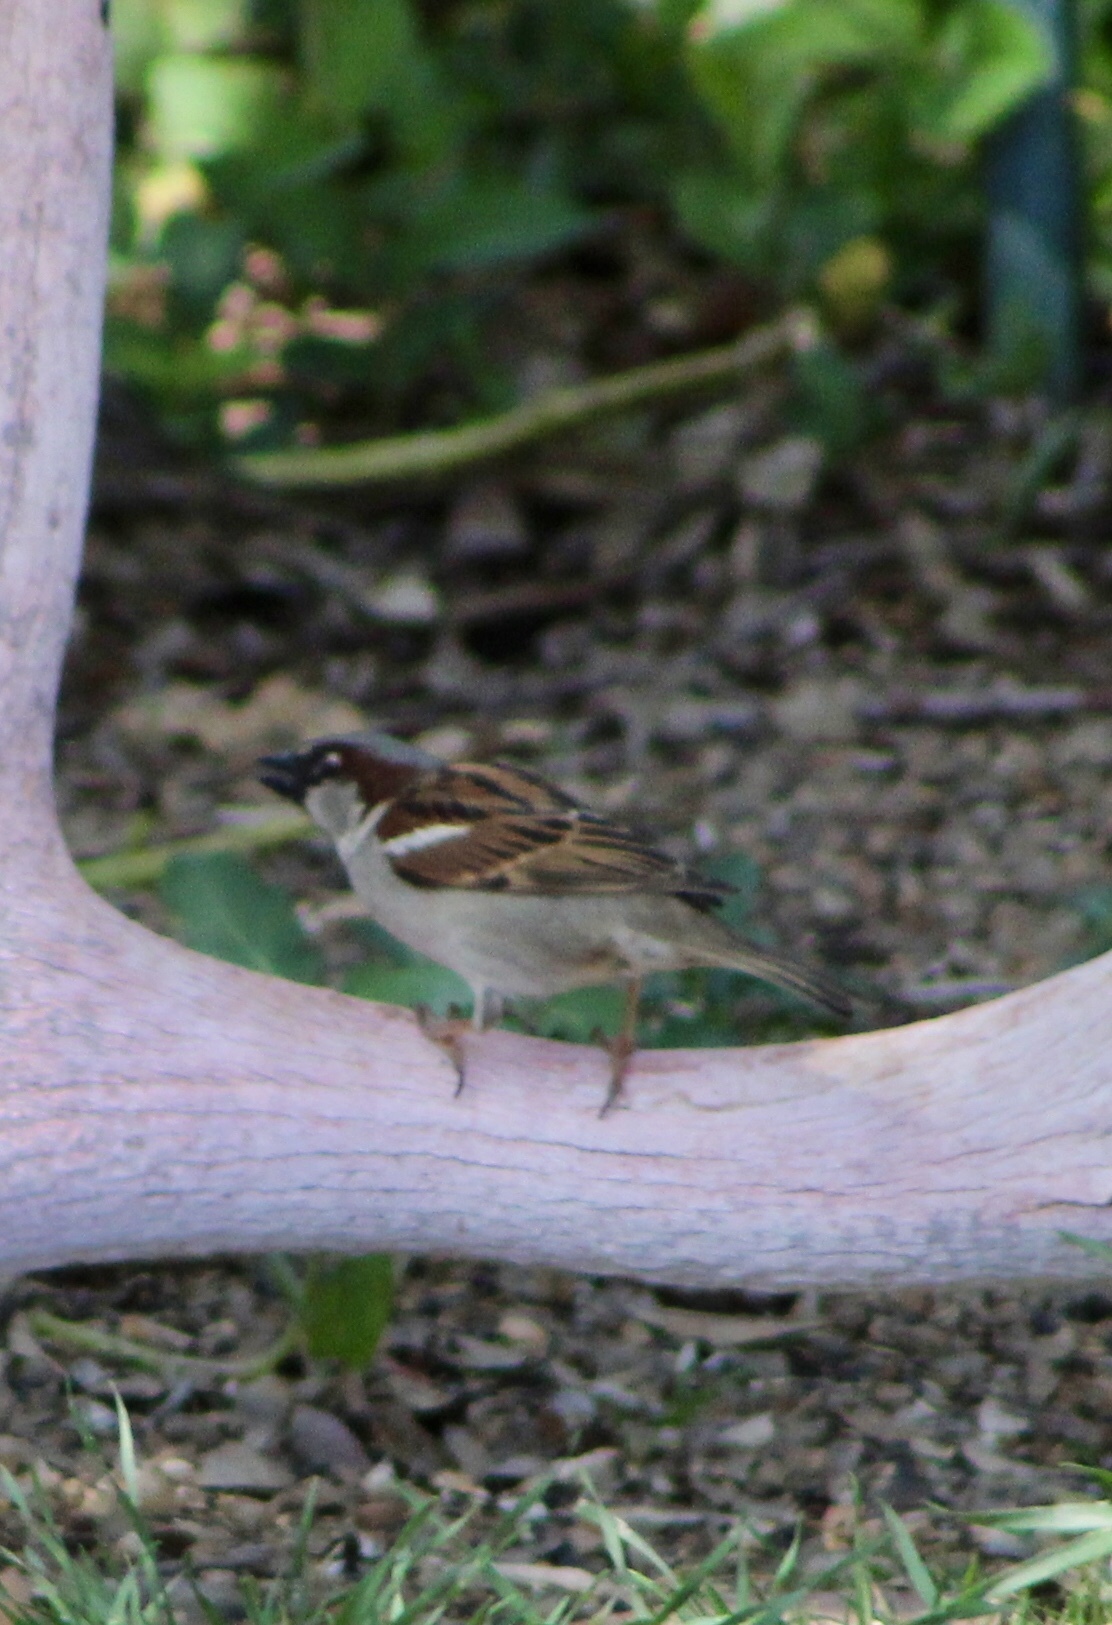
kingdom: Animalia
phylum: Chordata
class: Aves
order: Passeriformes
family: Passeridae
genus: Passer
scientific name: Passer domesticus
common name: House sparrow
